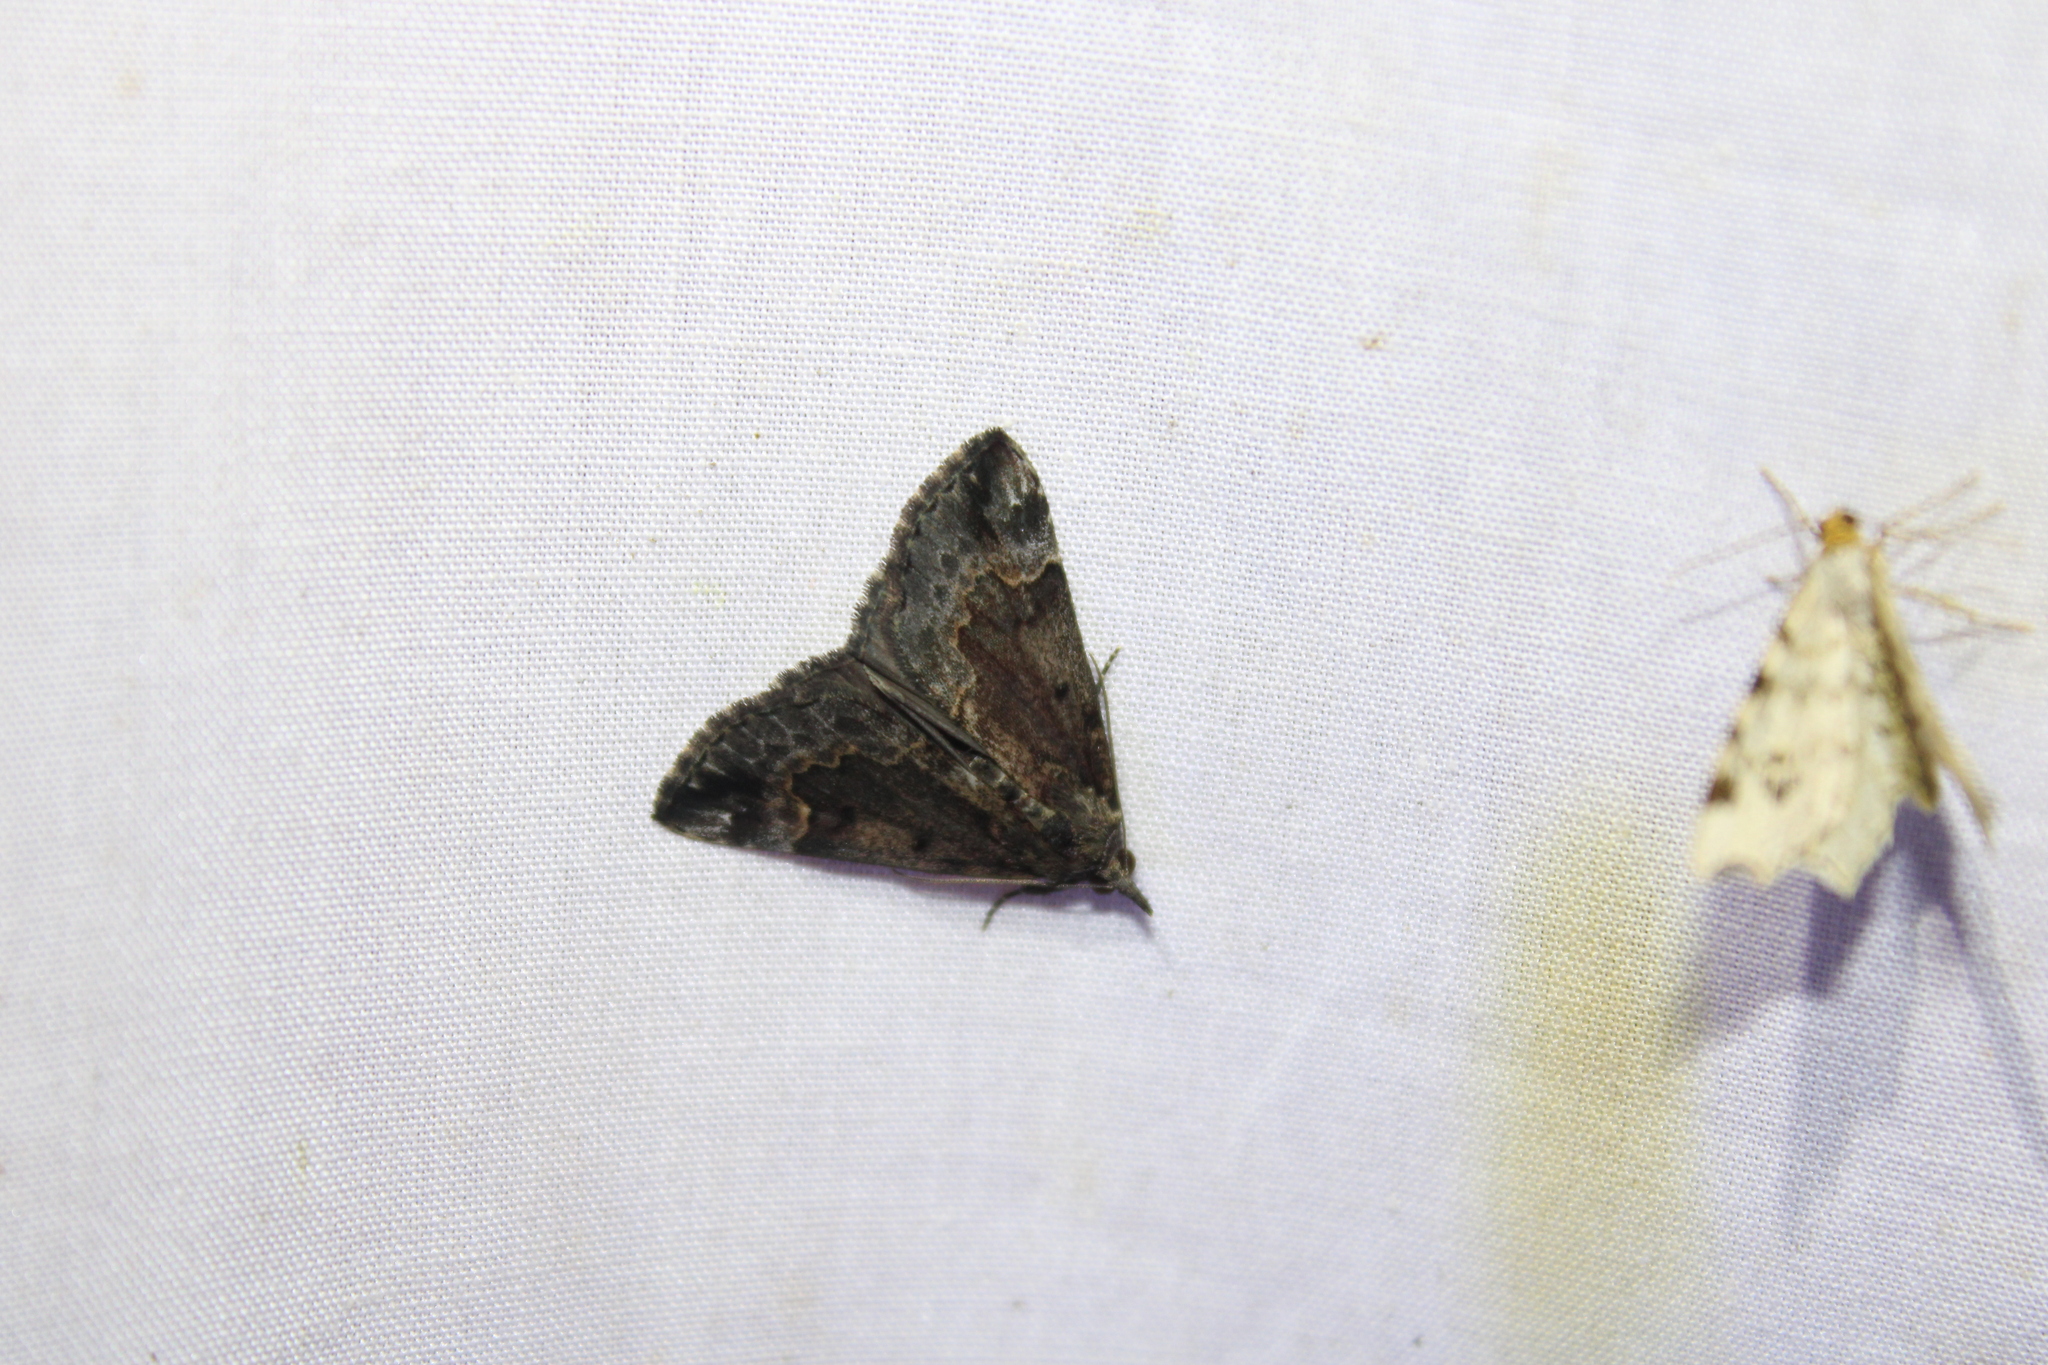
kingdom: Animalia
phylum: Arthropoda
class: Insecta
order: Lepidoptera
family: Erebidae
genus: Hypena
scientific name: Hypena baltimoralis
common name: Baltimore snout
